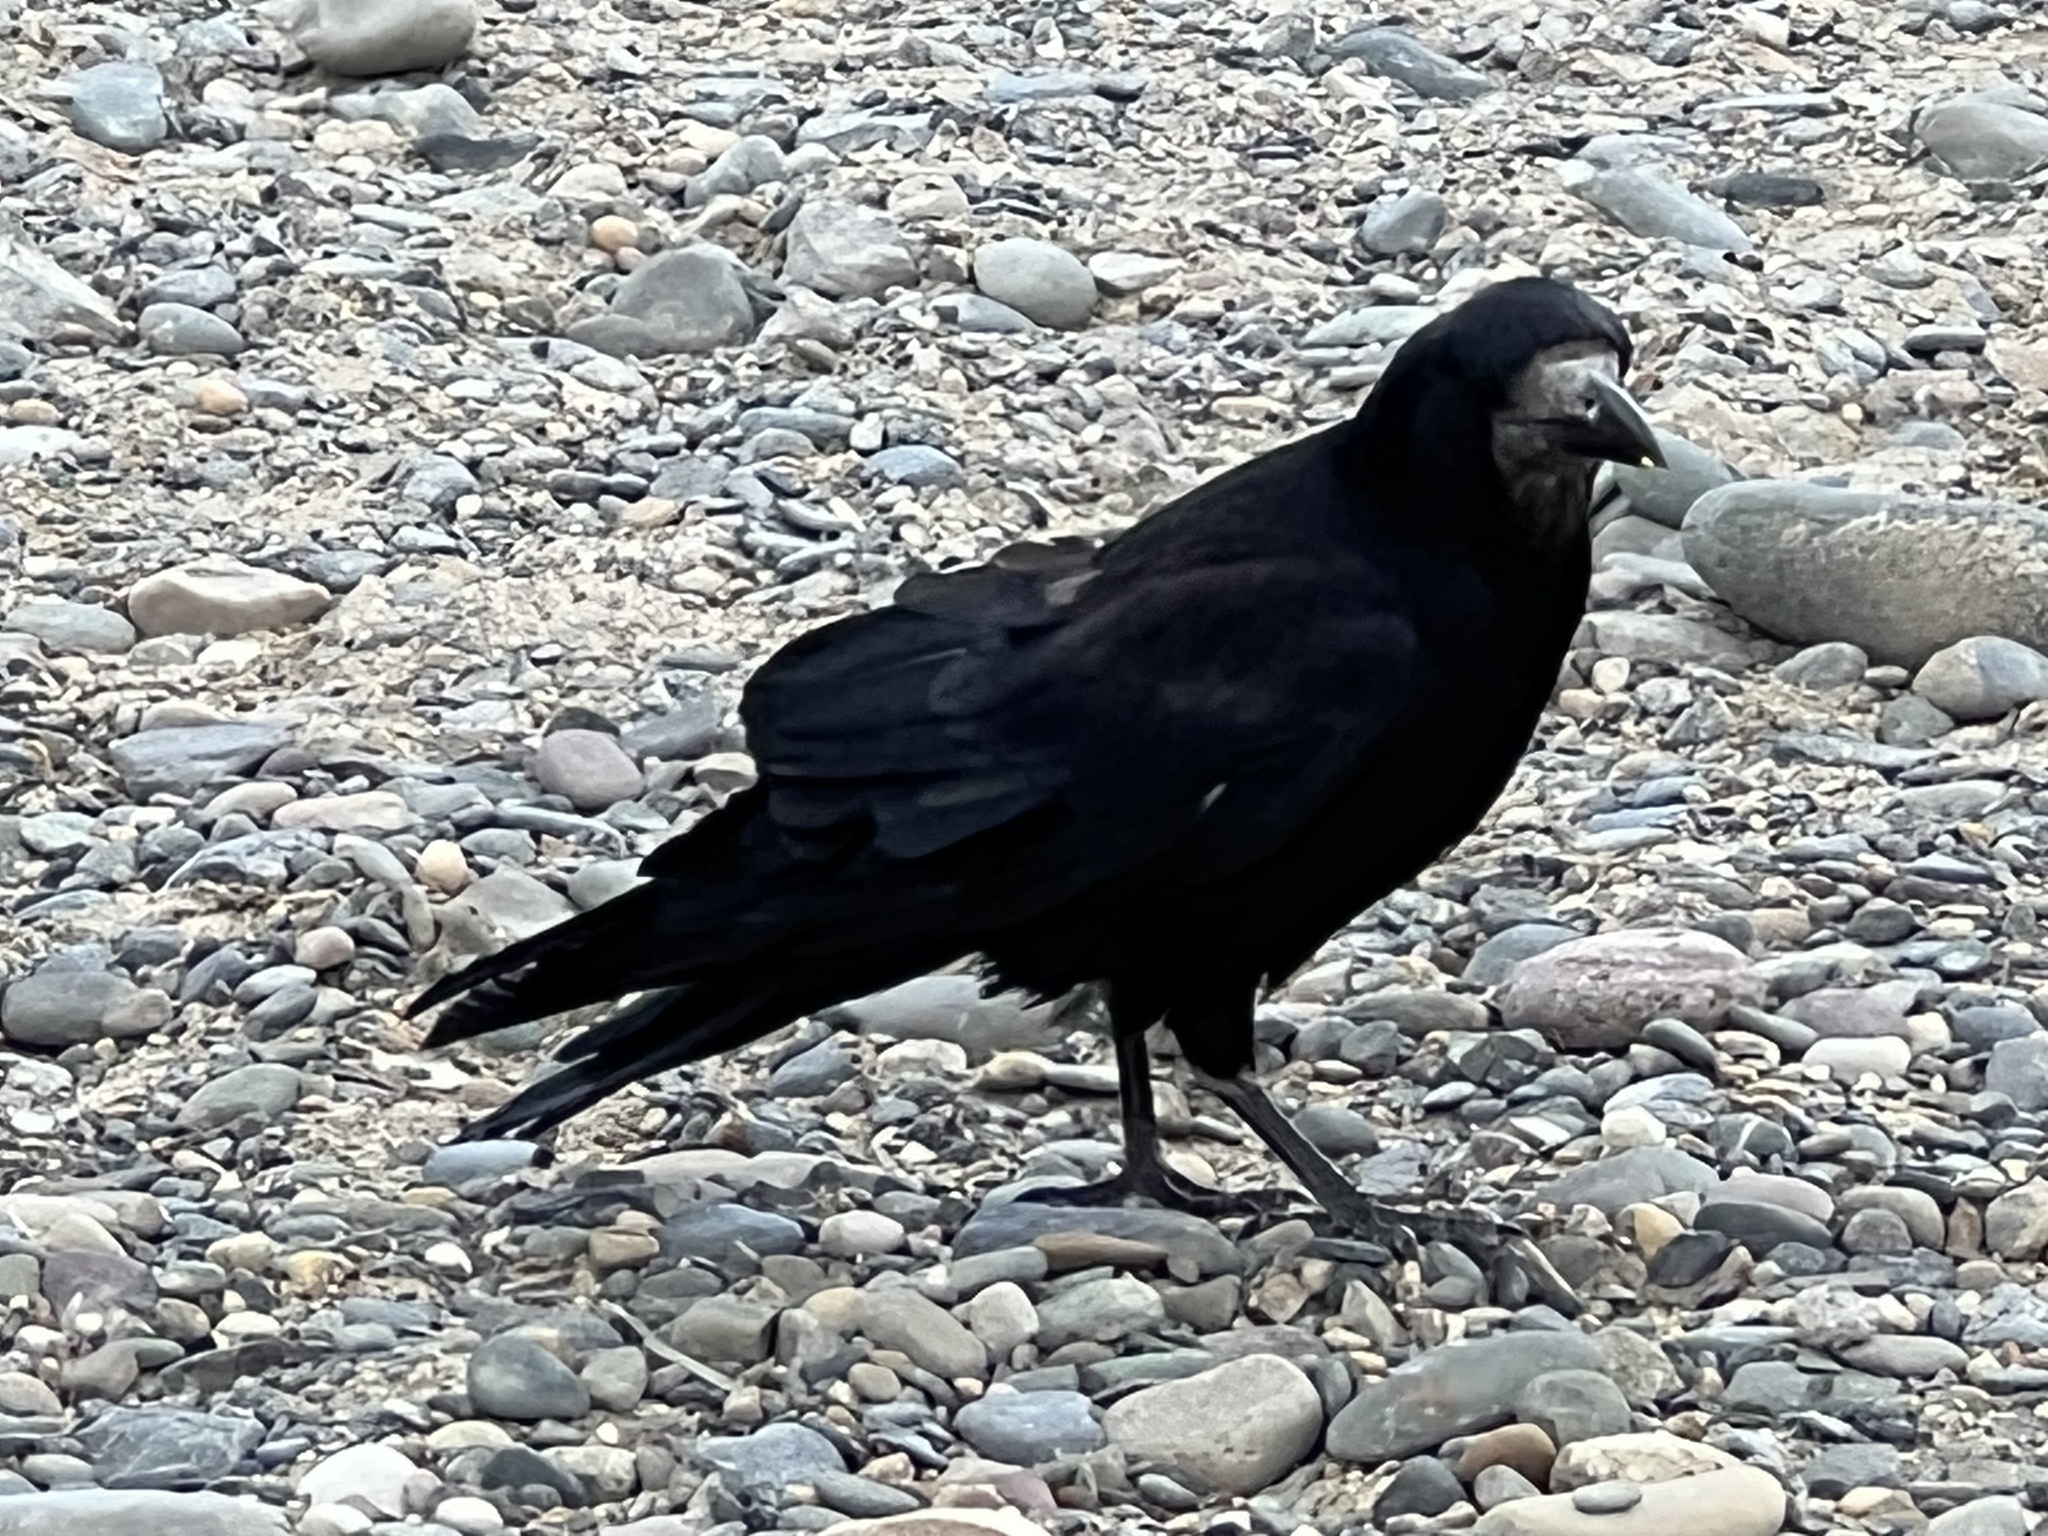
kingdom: Animalia
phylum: Chordata
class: Aves
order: Passeriformes
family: Corvidae
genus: Corvus
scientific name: Corvus frugilegus
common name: Rook
